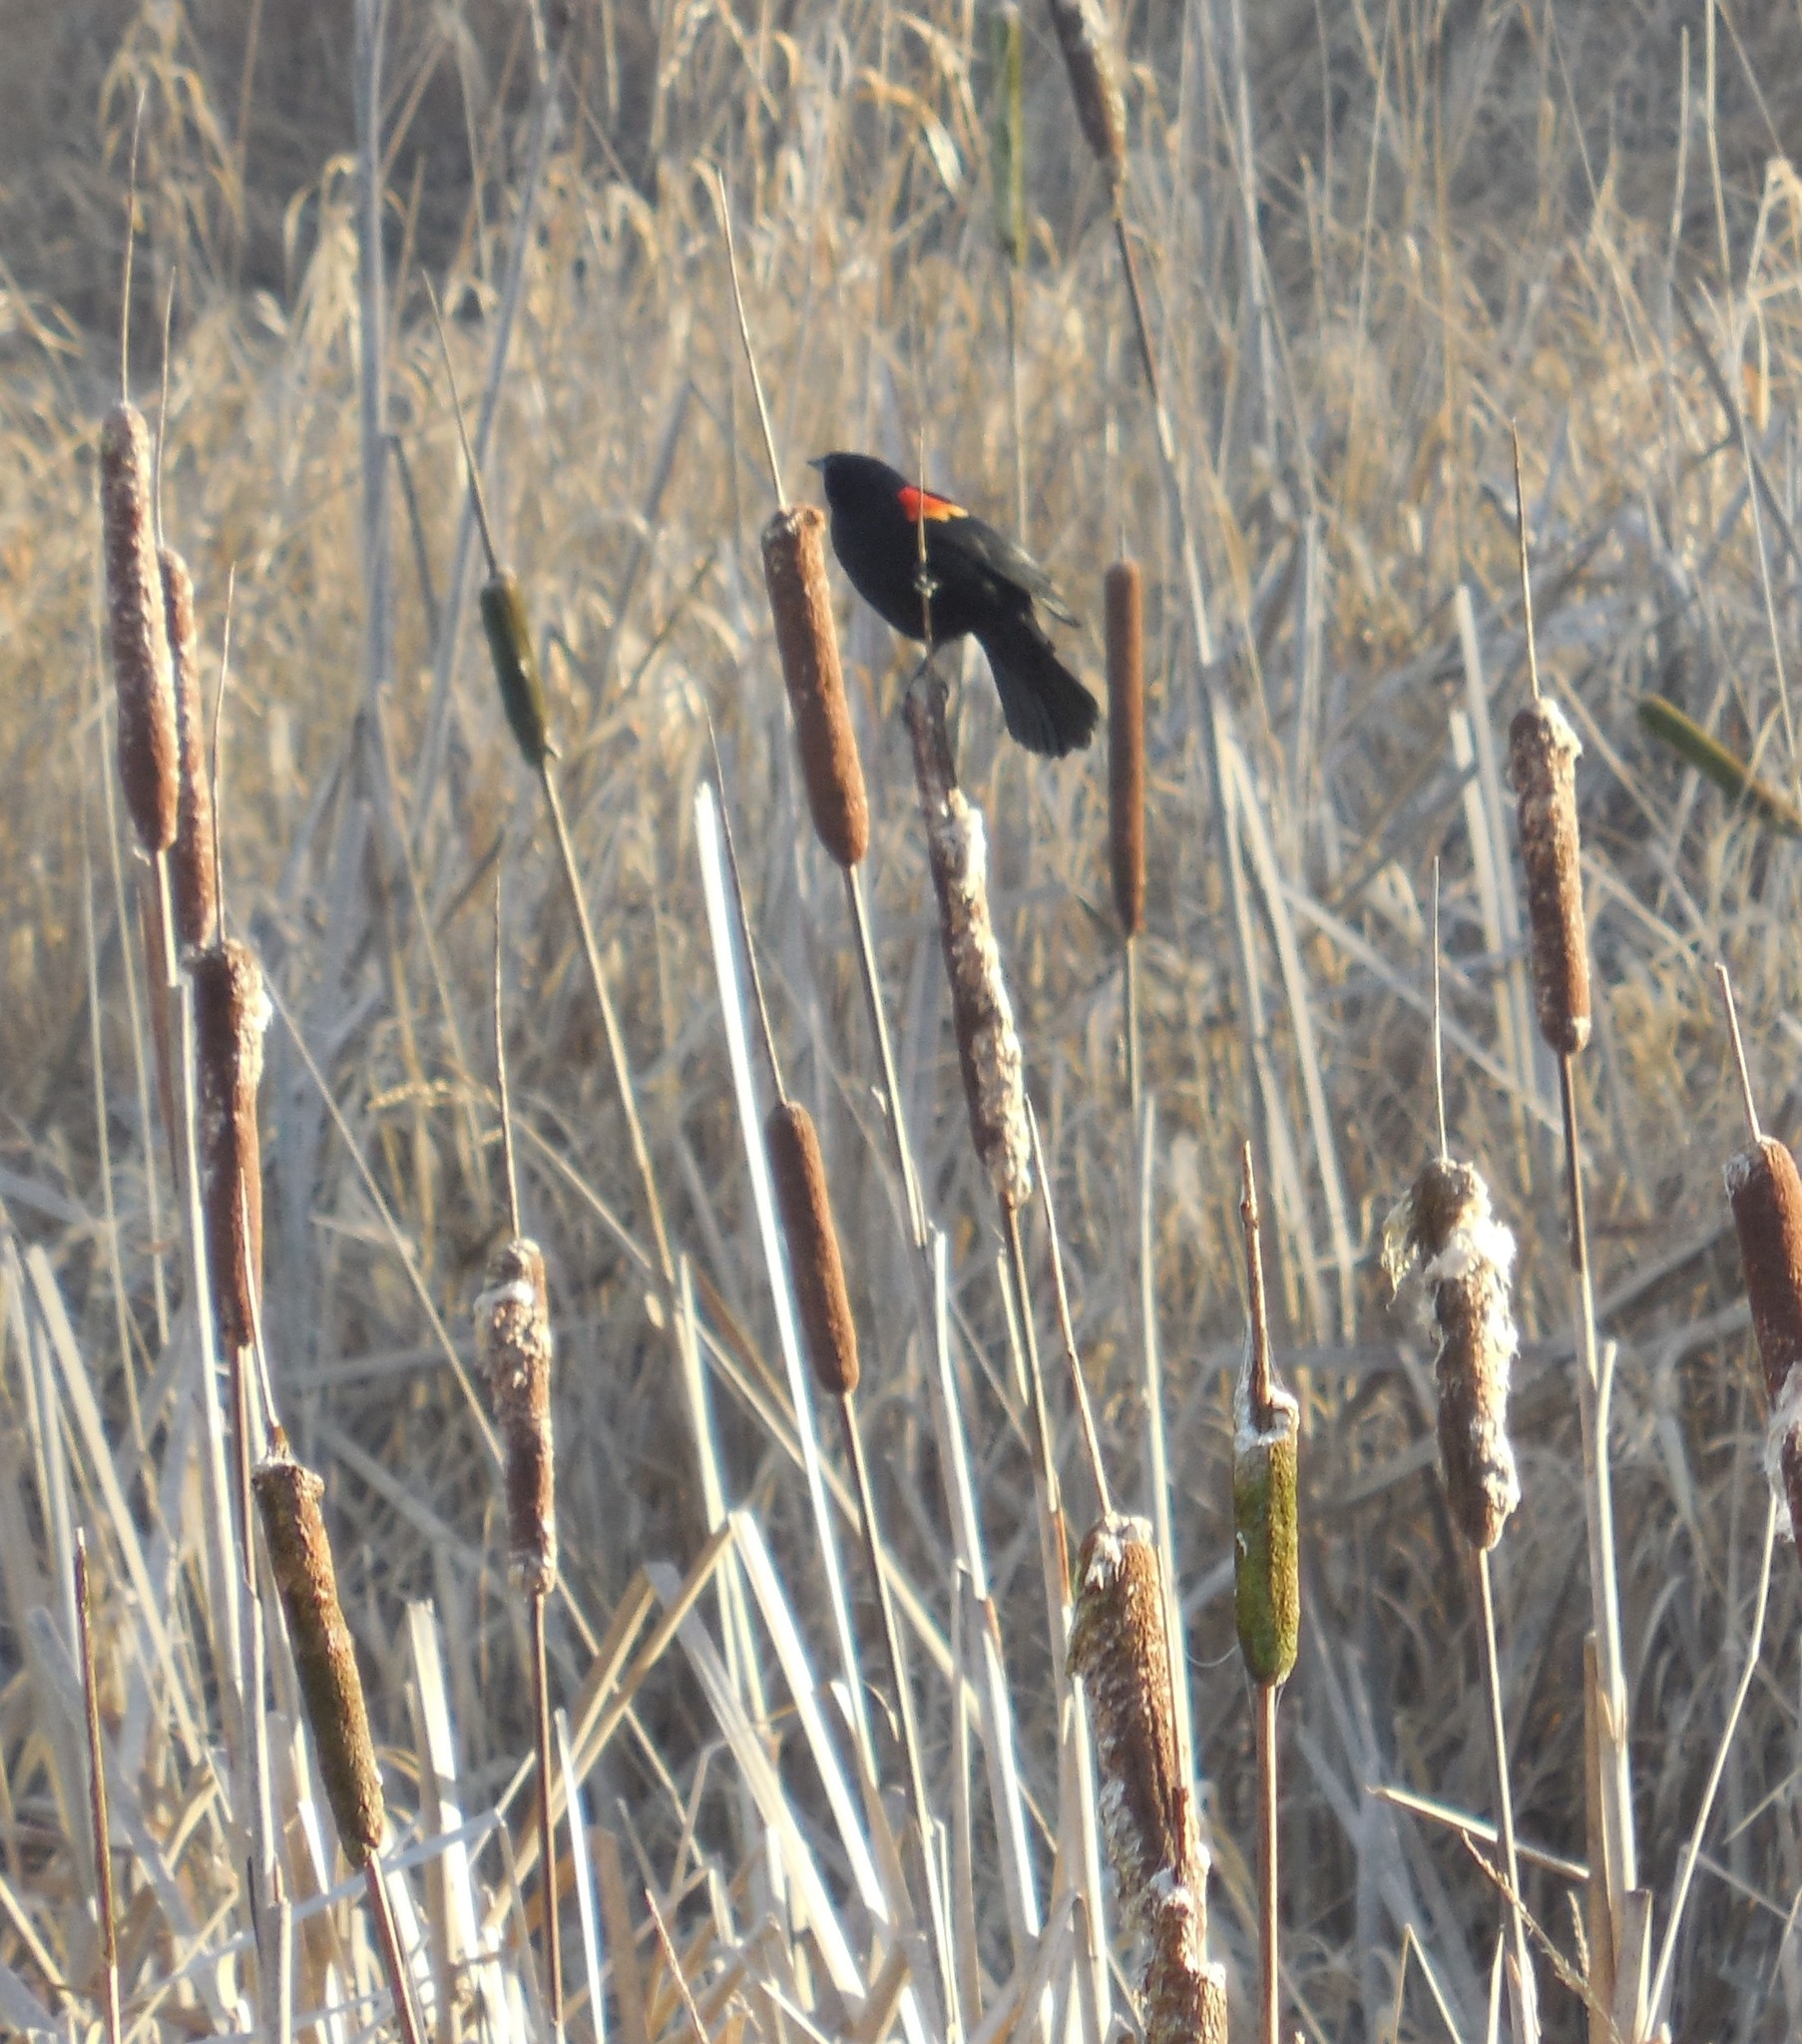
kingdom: Animalia
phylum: Chordata
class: Aves
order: Passeriformes
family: Icteridae
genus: Agelaius
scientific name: Agelaius phoeniceus
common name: Red-winged blackbird
